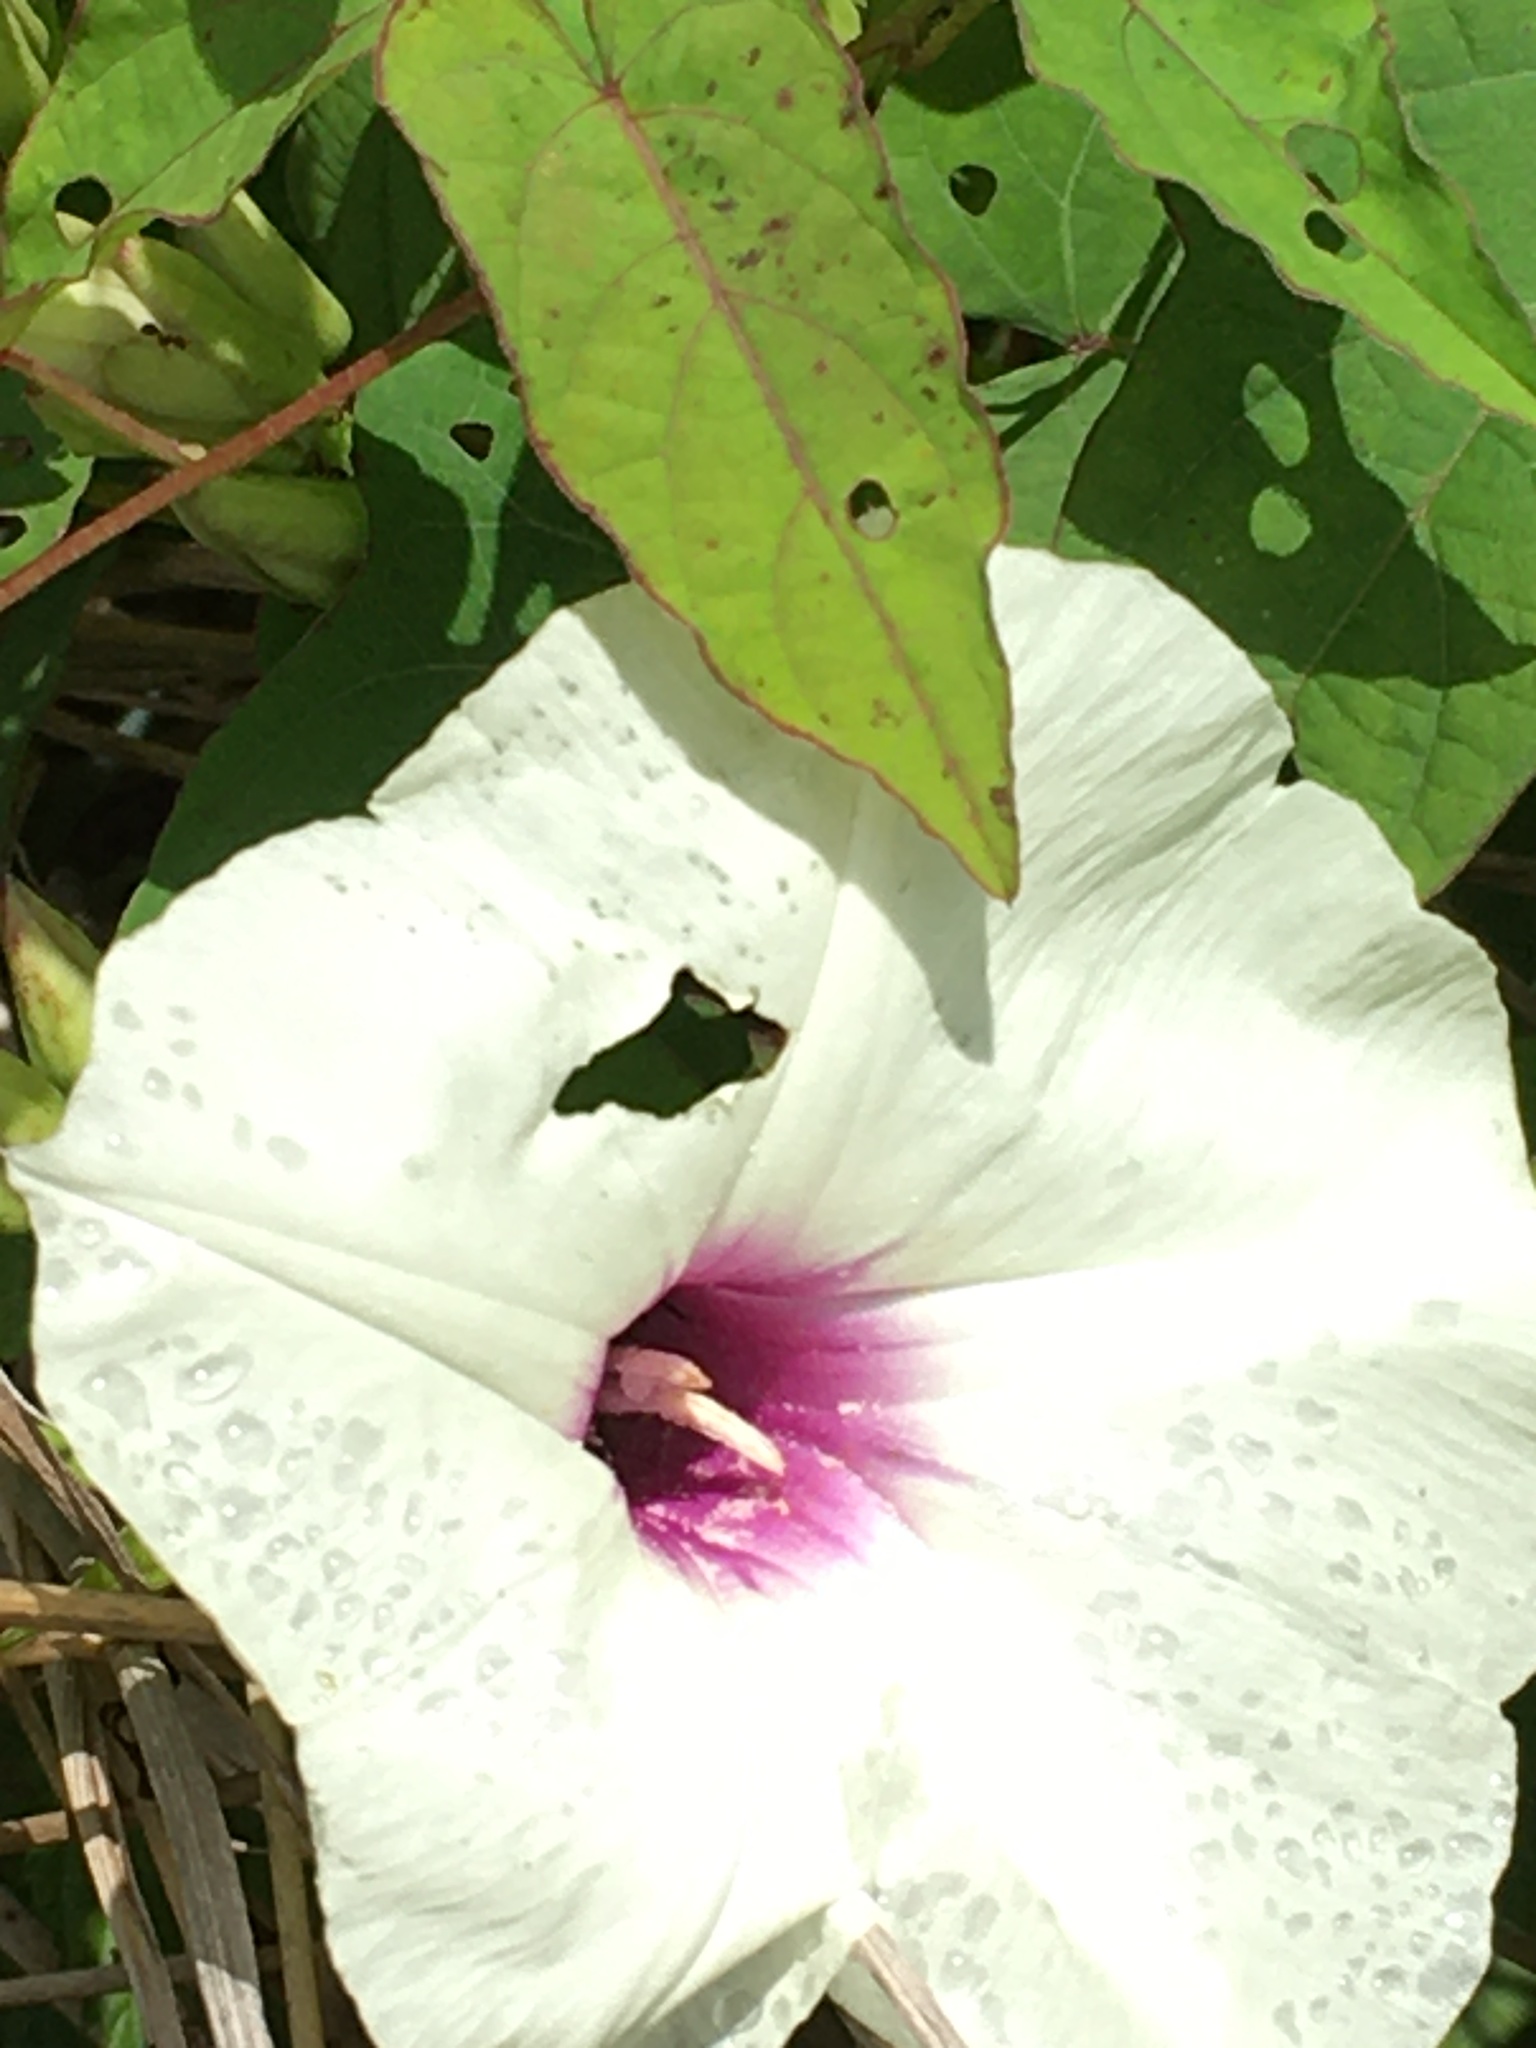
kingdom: Plantae
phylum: Tracheophyta
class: Magnoliopsida
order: Solanales
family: Convolvulaceae
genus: Ipomoea
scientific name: Ipomoea pandurata
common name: Man-of-the-earth
